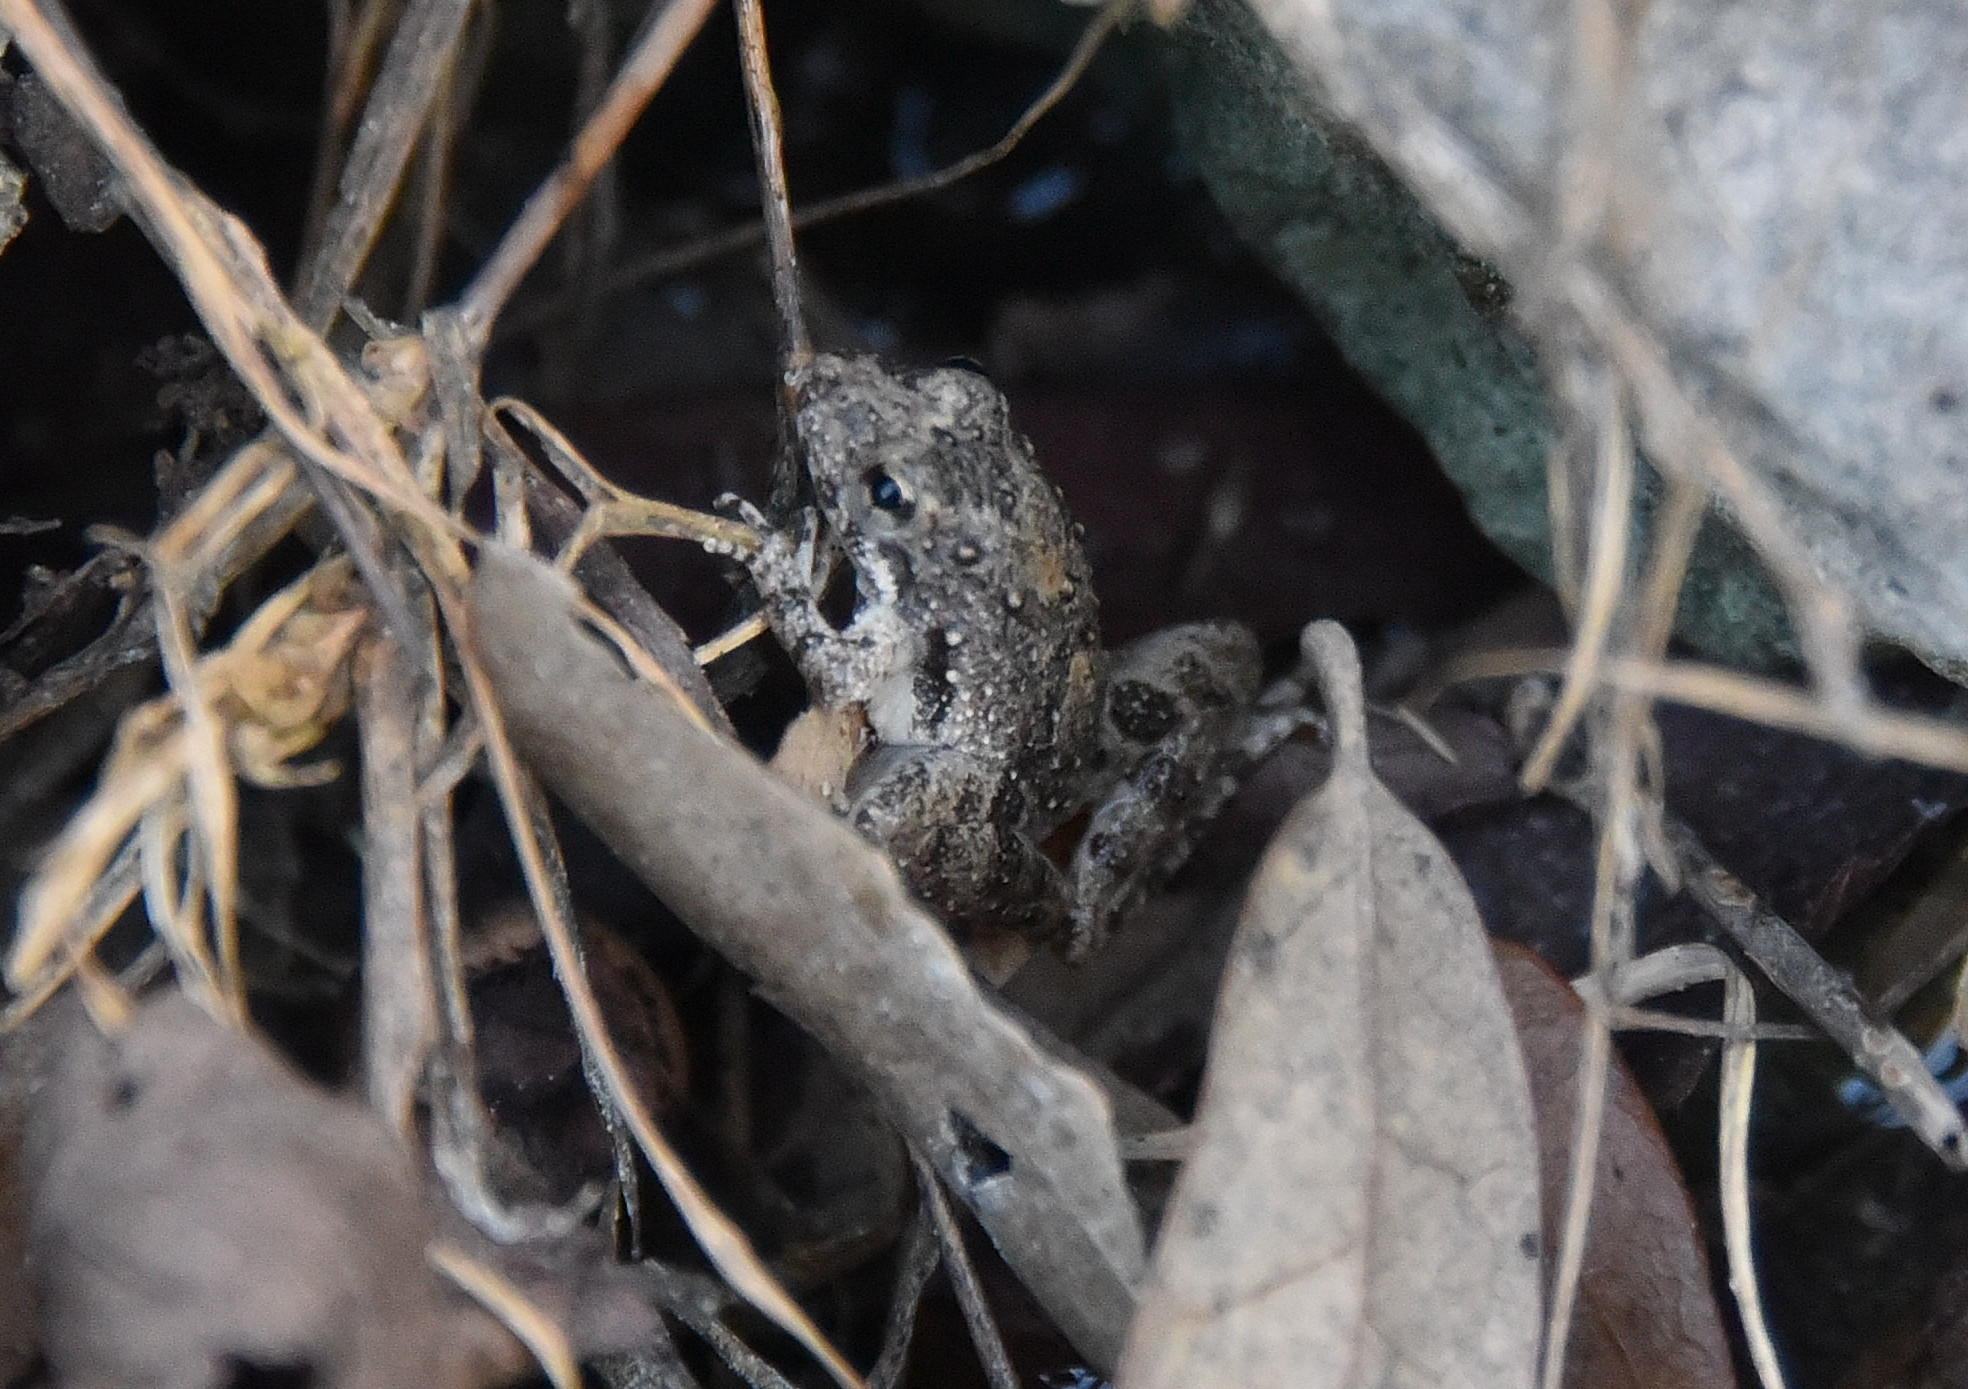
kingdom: Animalia
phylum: Chordata
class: Amphibia
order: Anura
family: Hylidae
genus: Acris
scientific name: Acris blanchardi
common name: Blanchard's cricket frog
